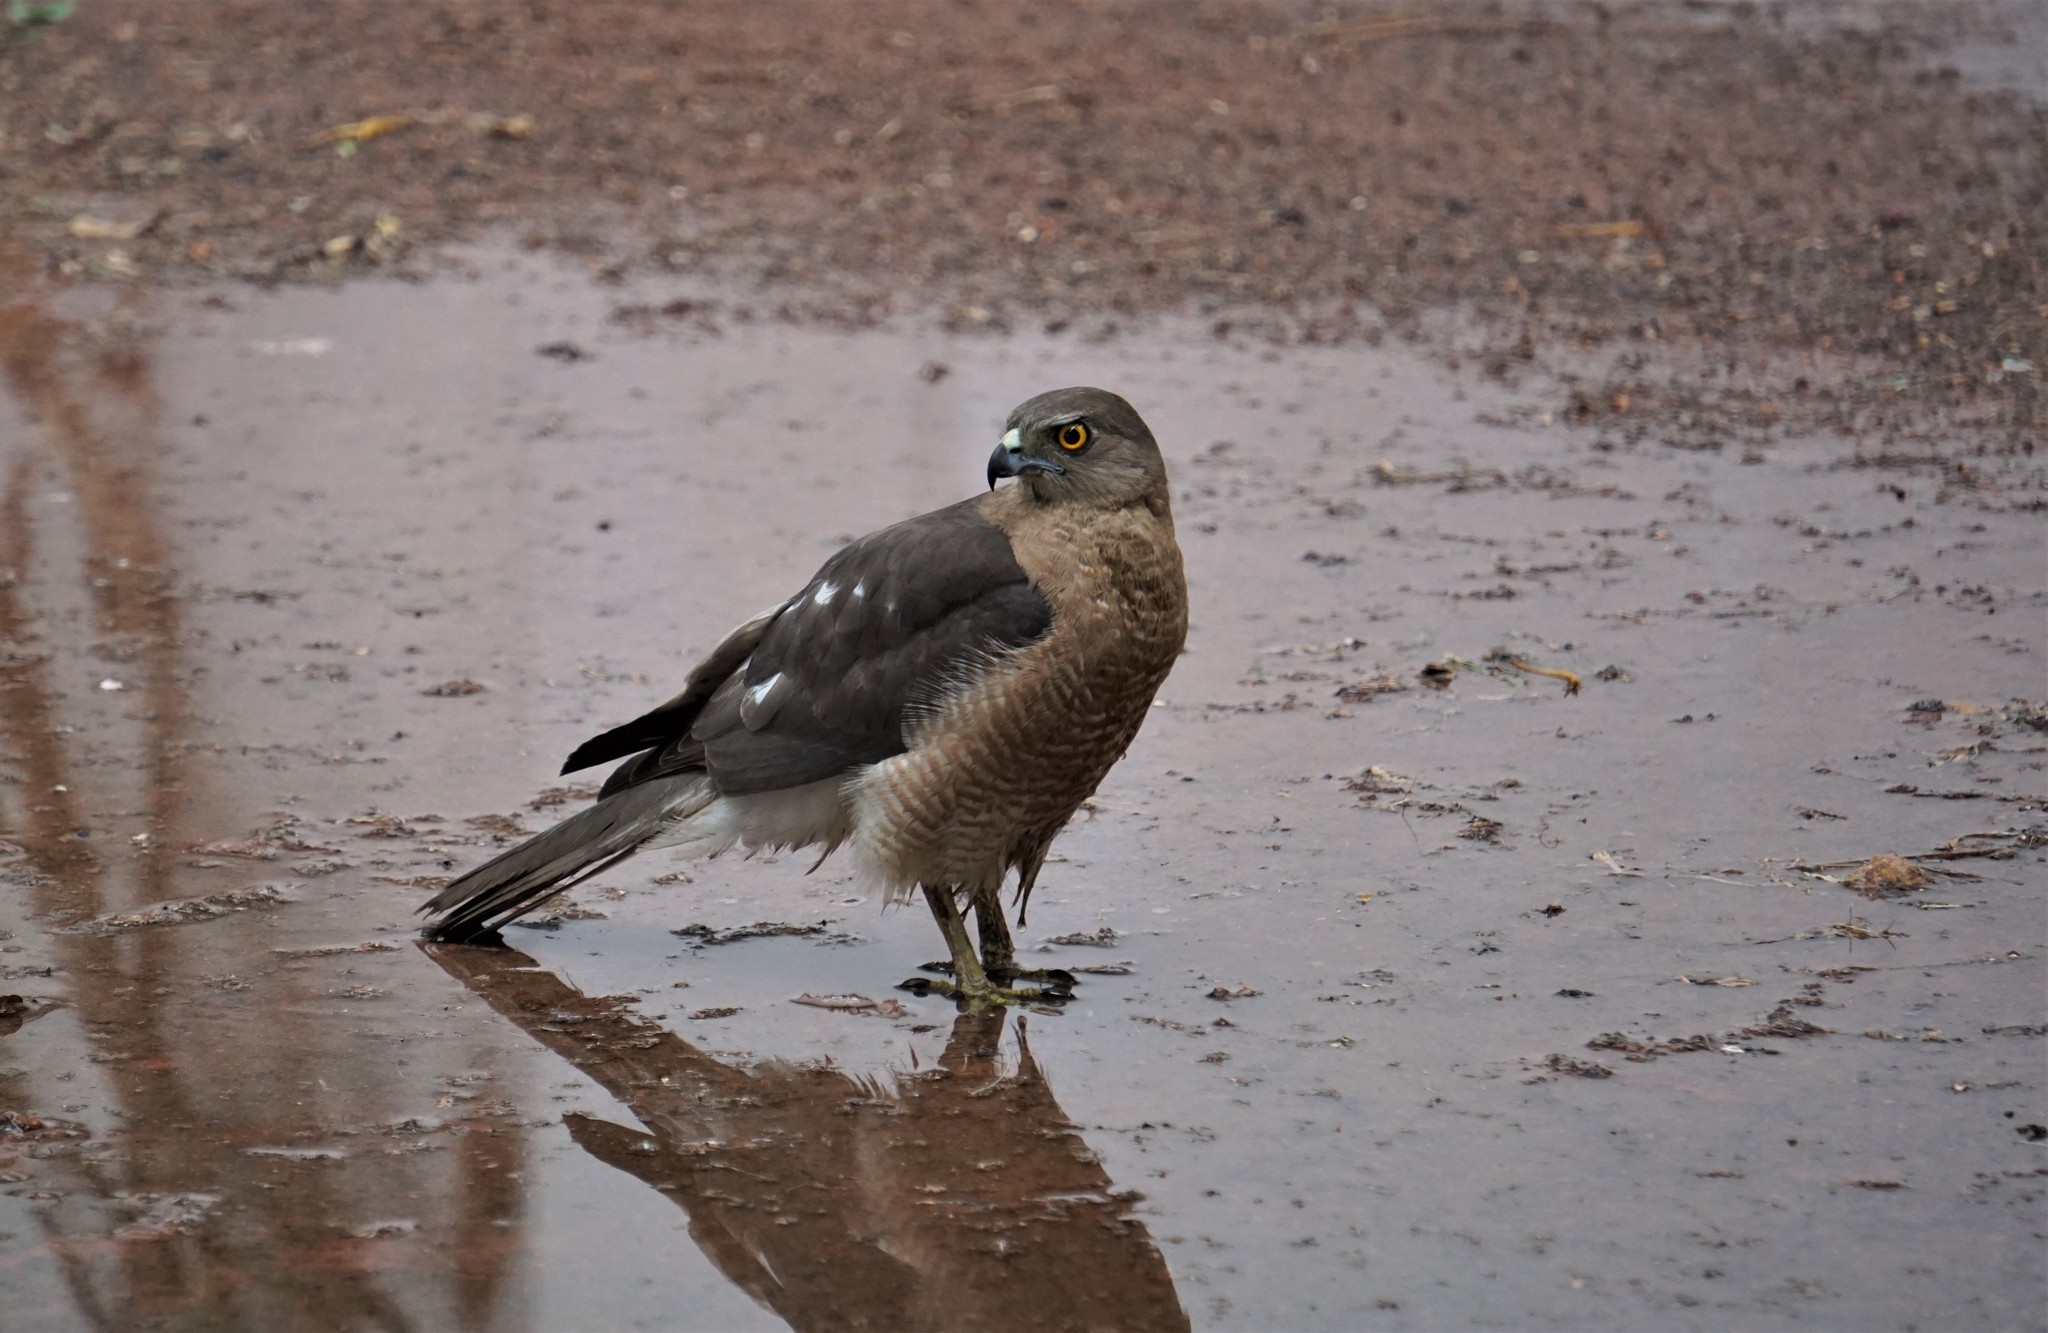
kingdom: Animalia
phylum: Chordata
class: Aves
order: Accipitriformes
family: Accipitridae
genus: Accipiter
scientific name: Accipiter badius
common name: Shikra
